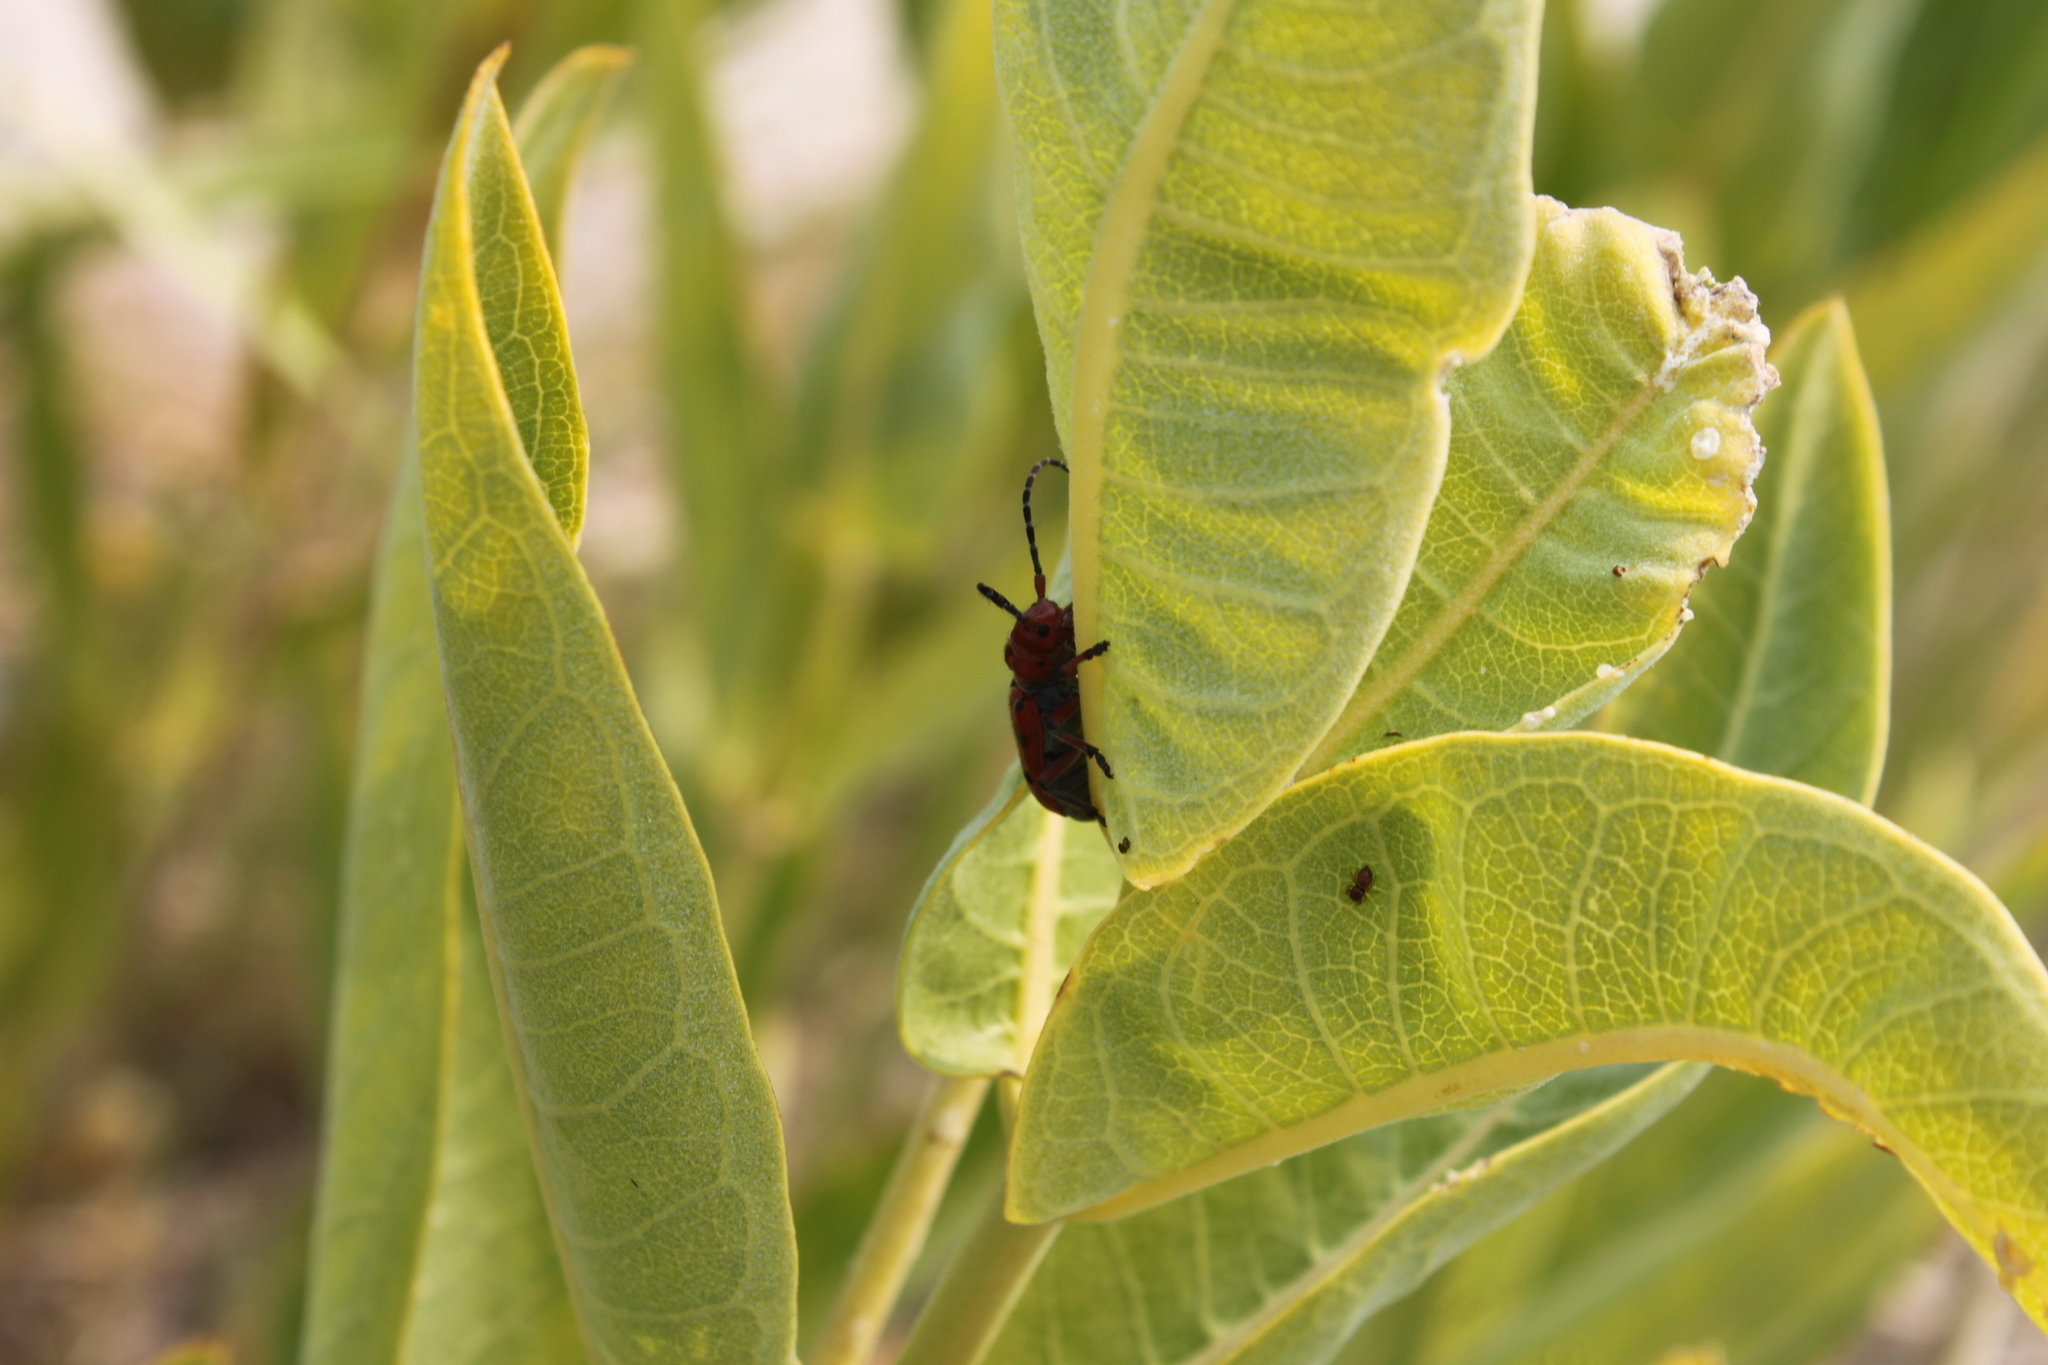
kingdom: Animalia
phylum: Arthropoda
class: Insecta
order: Coleoptera
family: Cerambycidae
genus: Tetraopes
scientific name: Tetraopes femoratus
